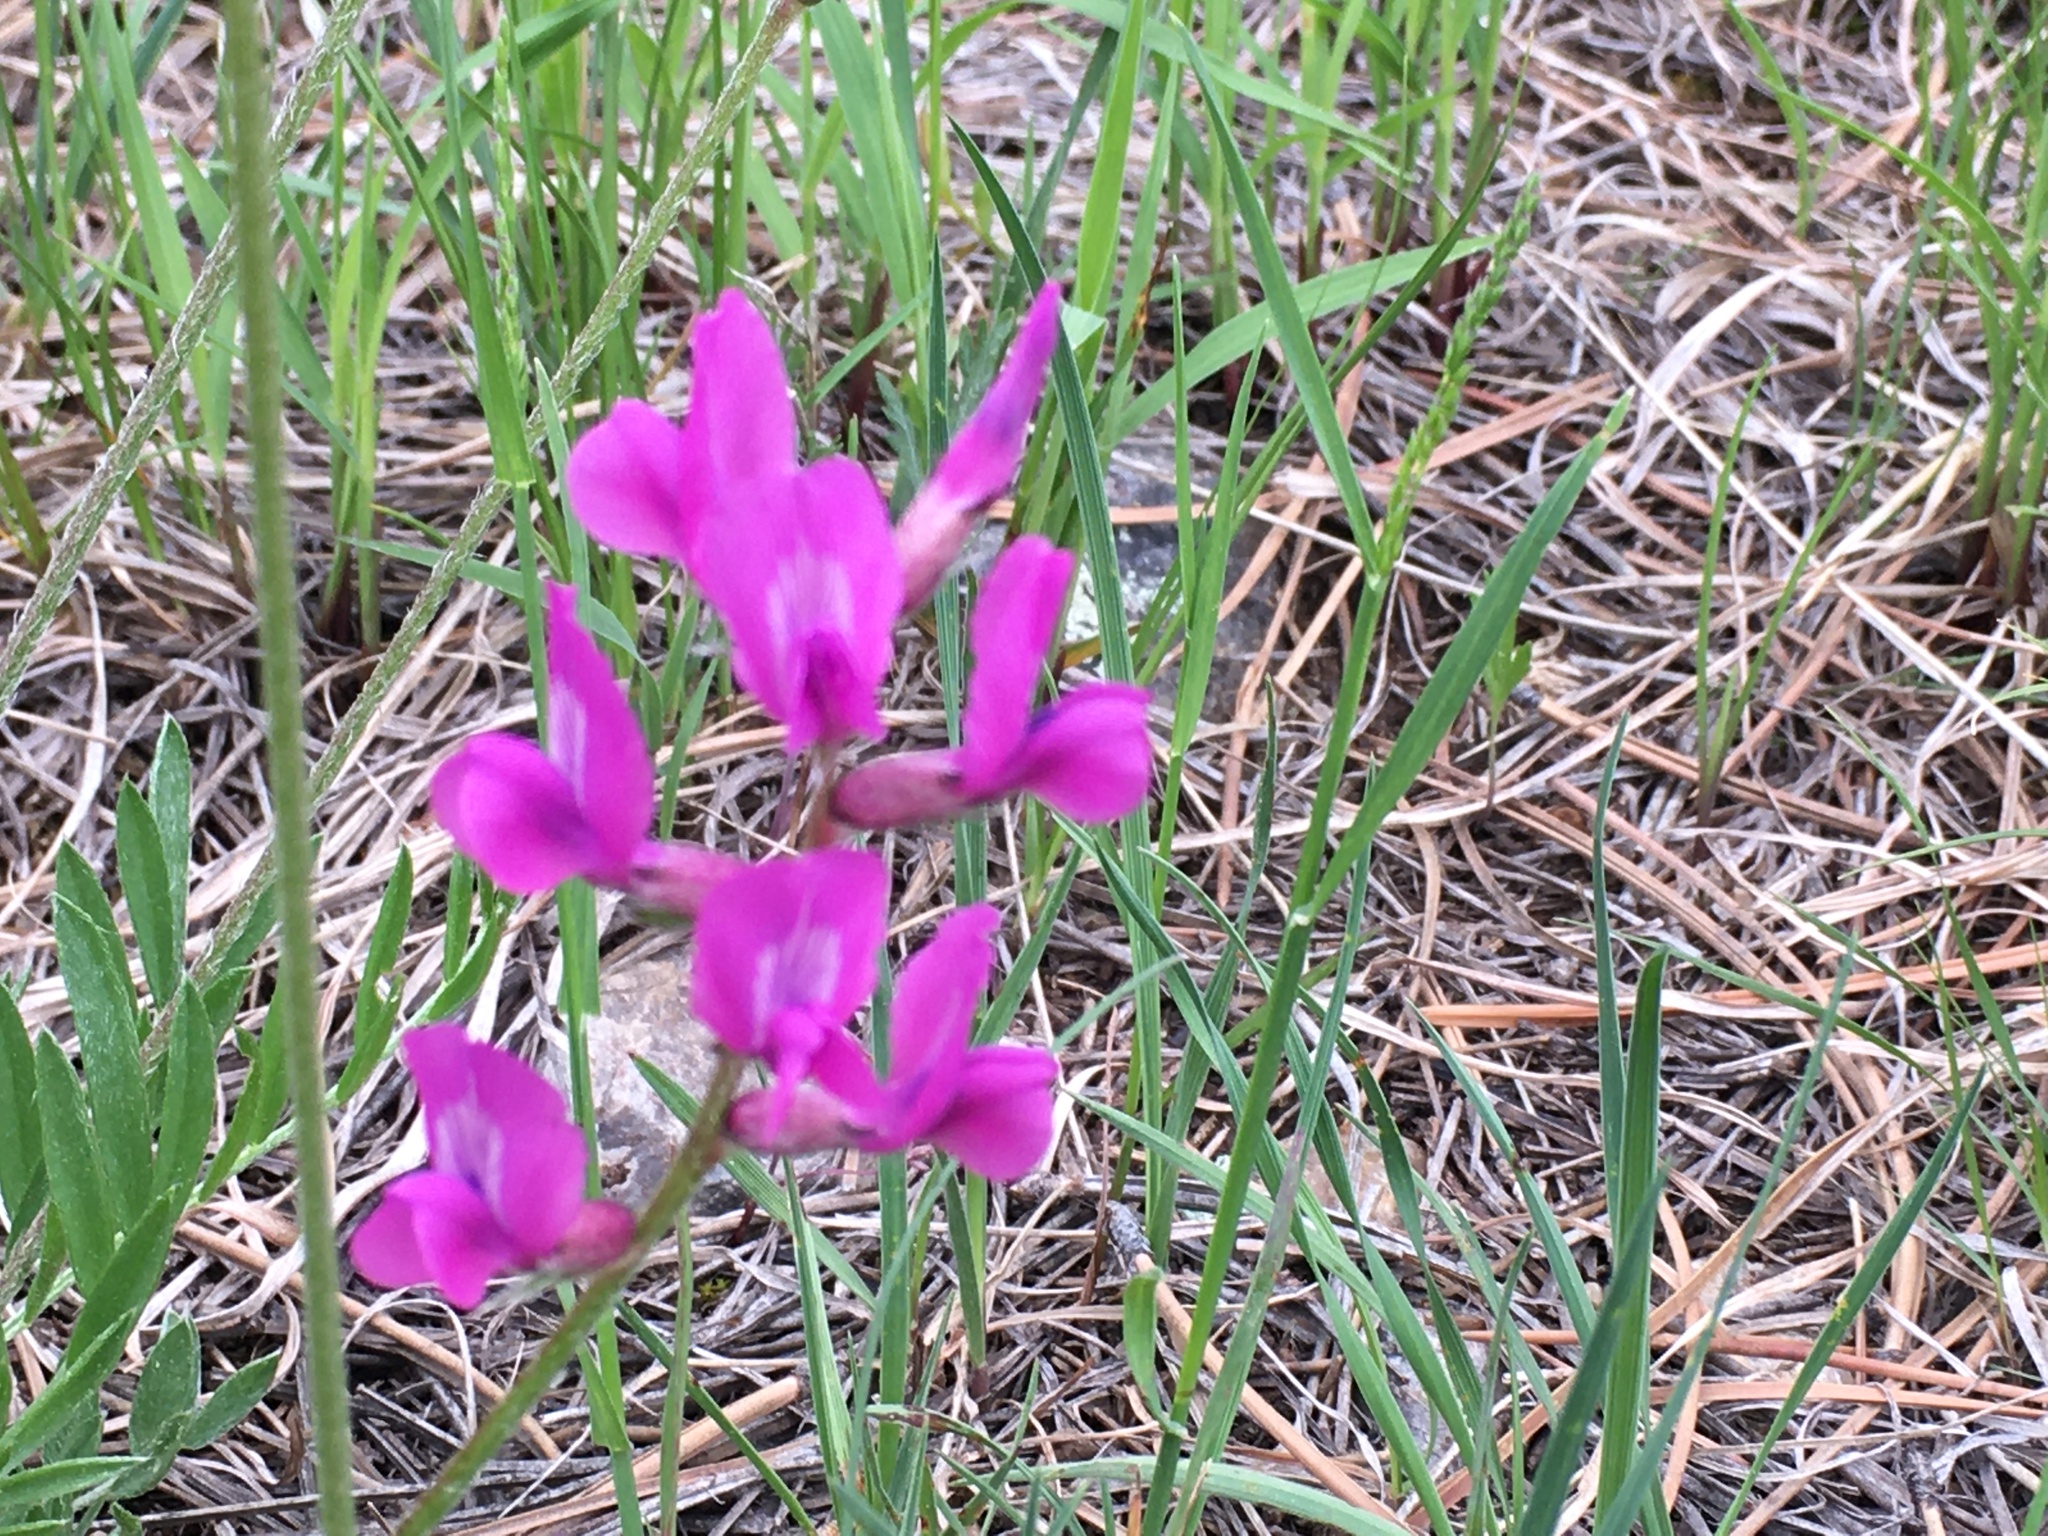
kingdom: Plantae
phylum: Tracheophyta
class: Magnoliopsida
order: Fabales
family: Fabaceae
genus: Oxytropis
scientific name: Oxytropis lambertii
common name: Purple locoweed
